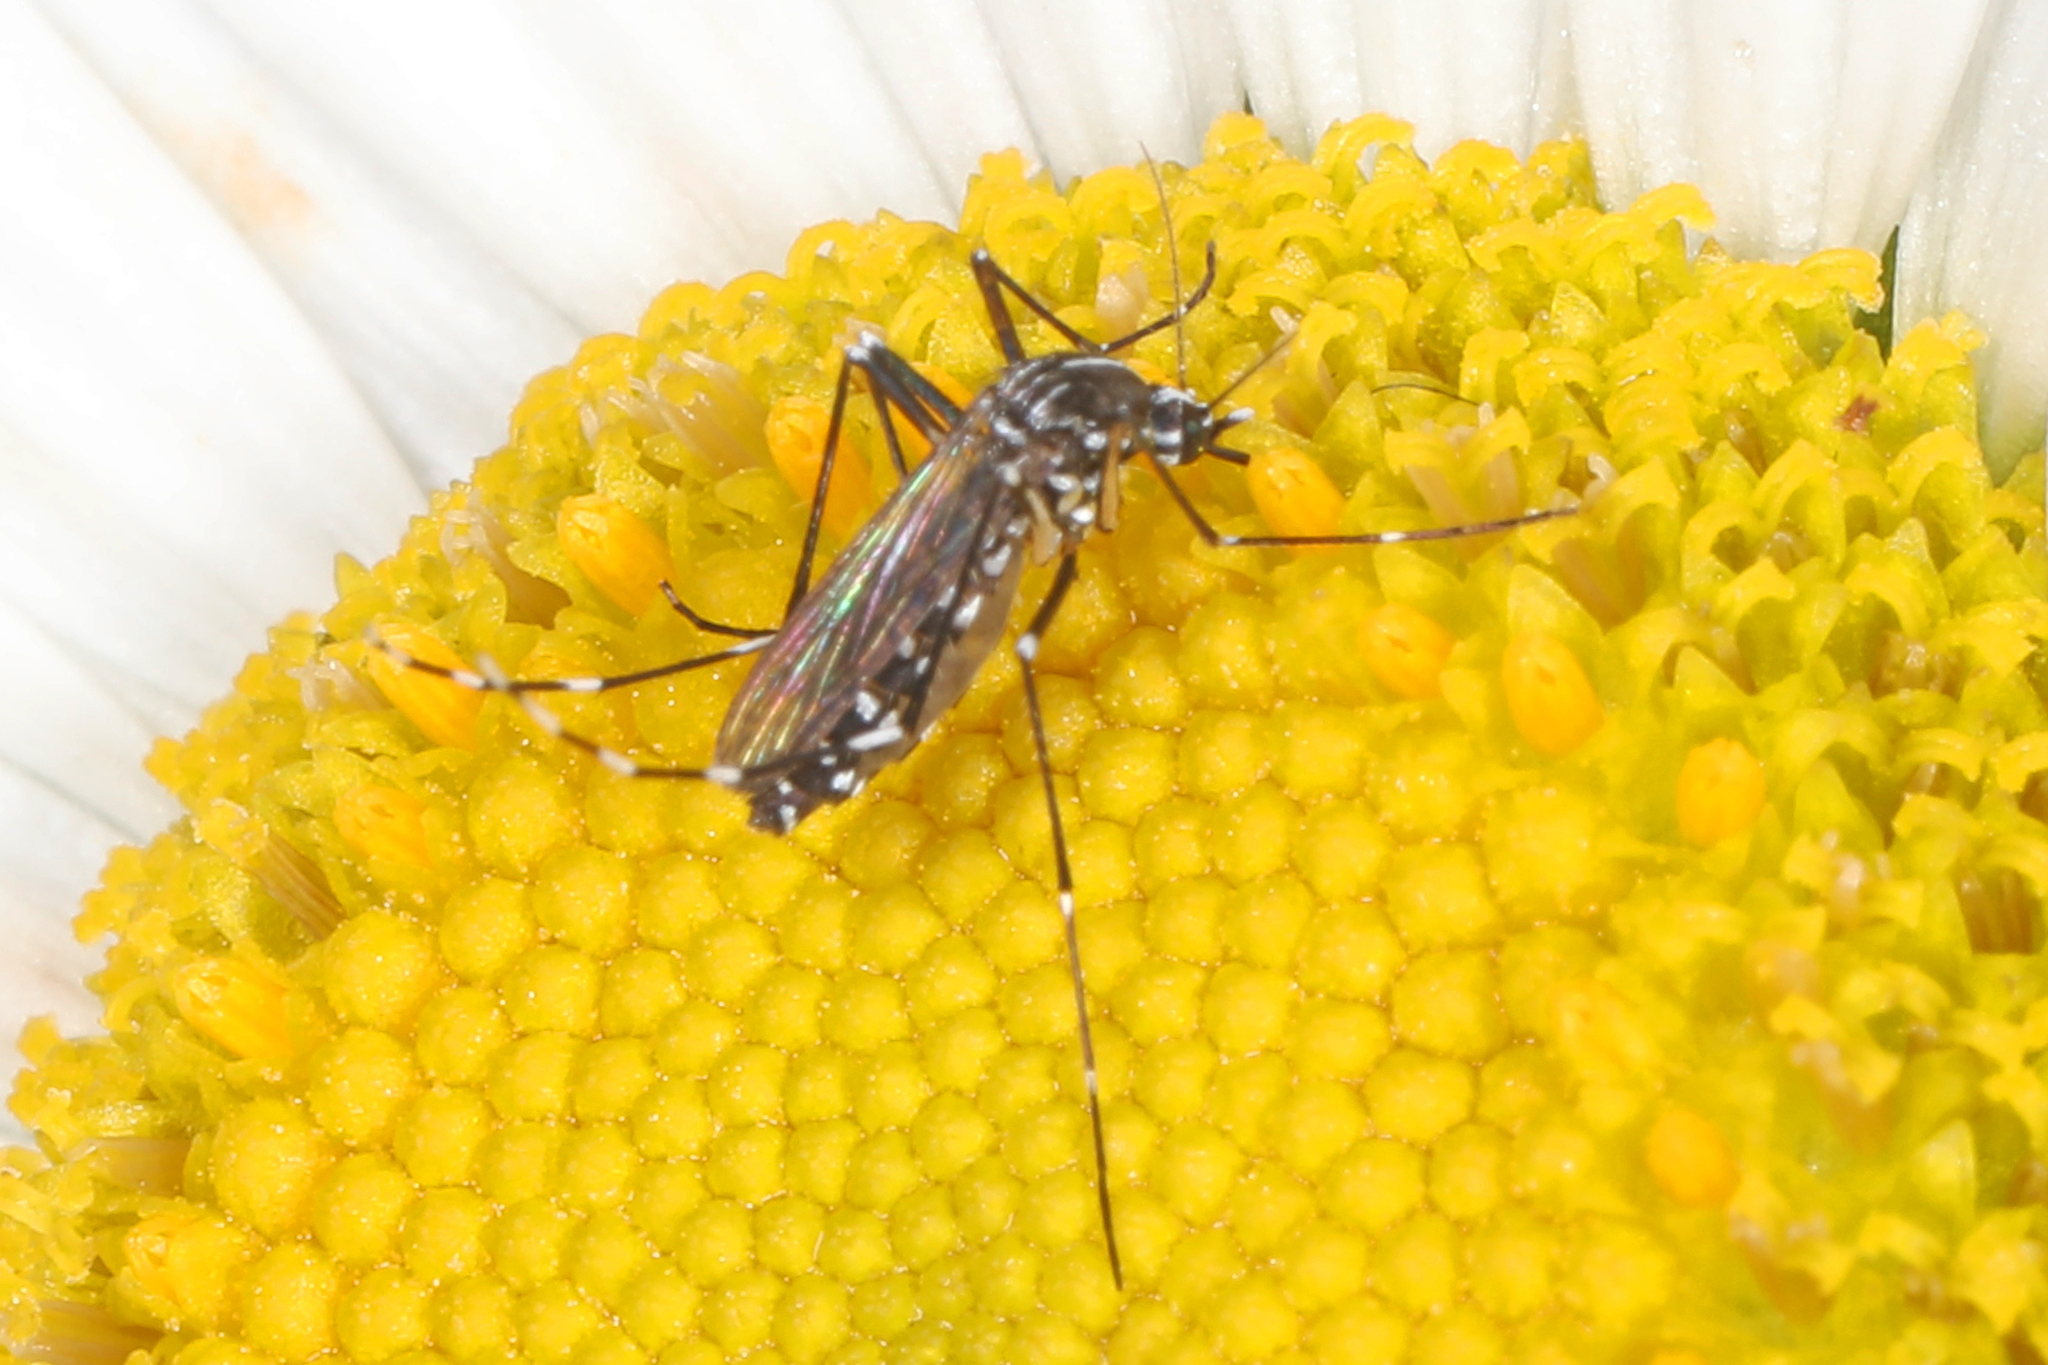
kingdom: Animalia
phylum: Arthropoda
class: Insecta
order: Diptera
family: Culicidae
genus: Aedes
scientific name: Aedes albopictus
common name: Tiger mosquito
